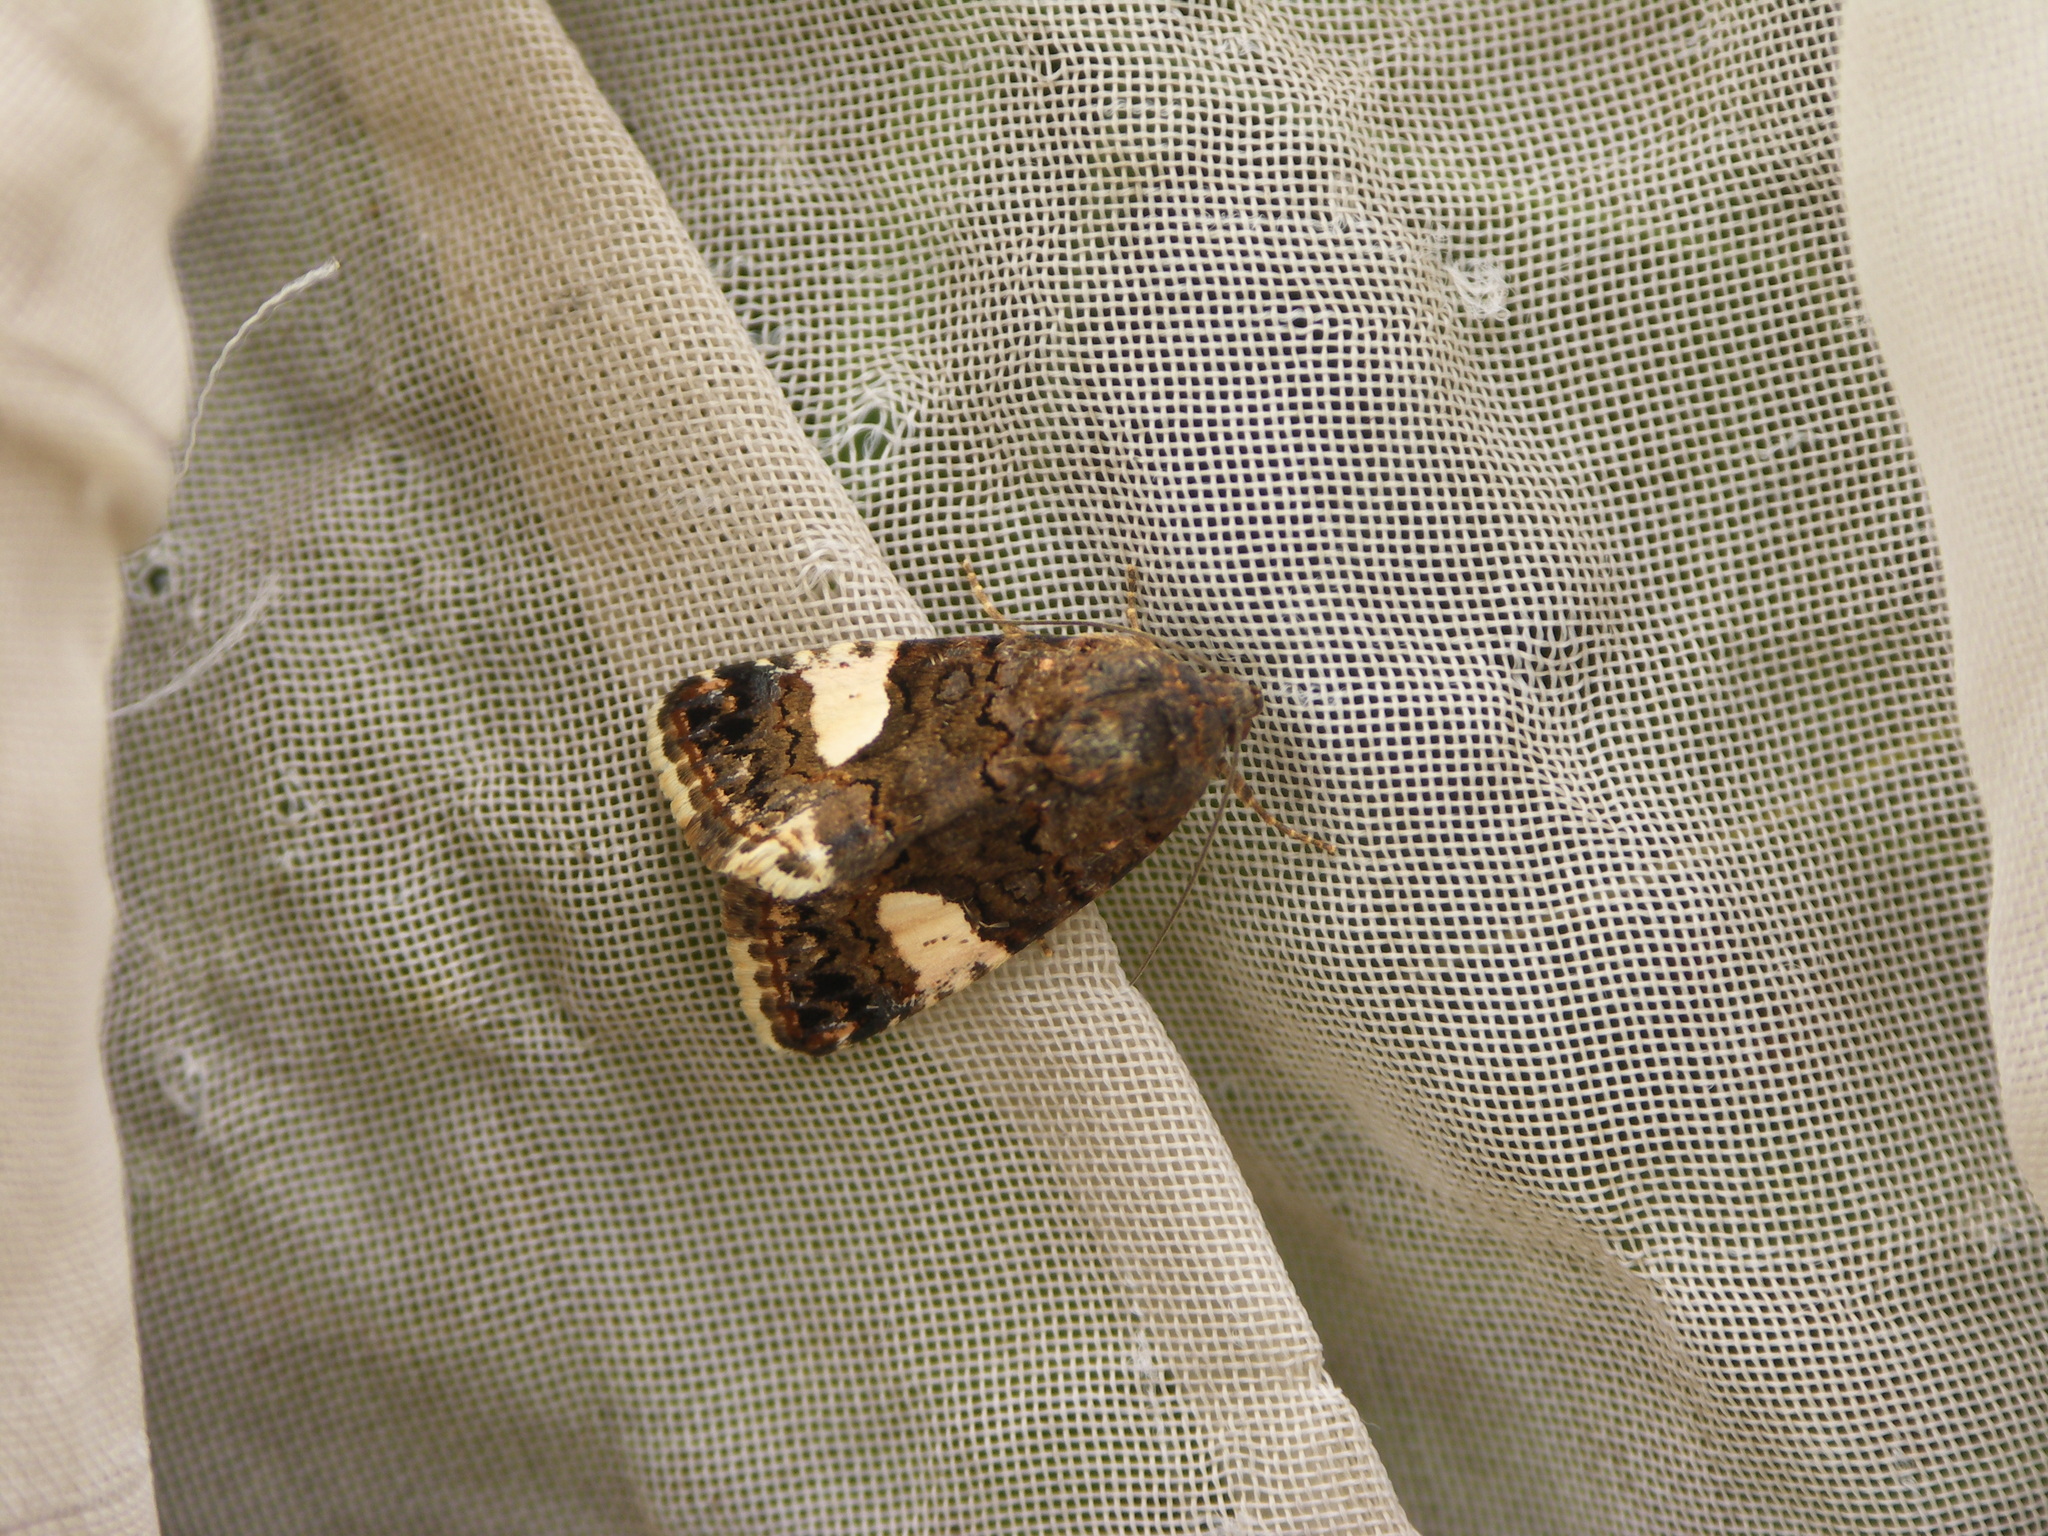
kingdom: Animalia
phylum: Arthropoda
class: Insecta
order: Lepidoptera
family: Erebidae
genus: Tyta
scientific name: Tyta luctuosa
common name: Four-spotted
